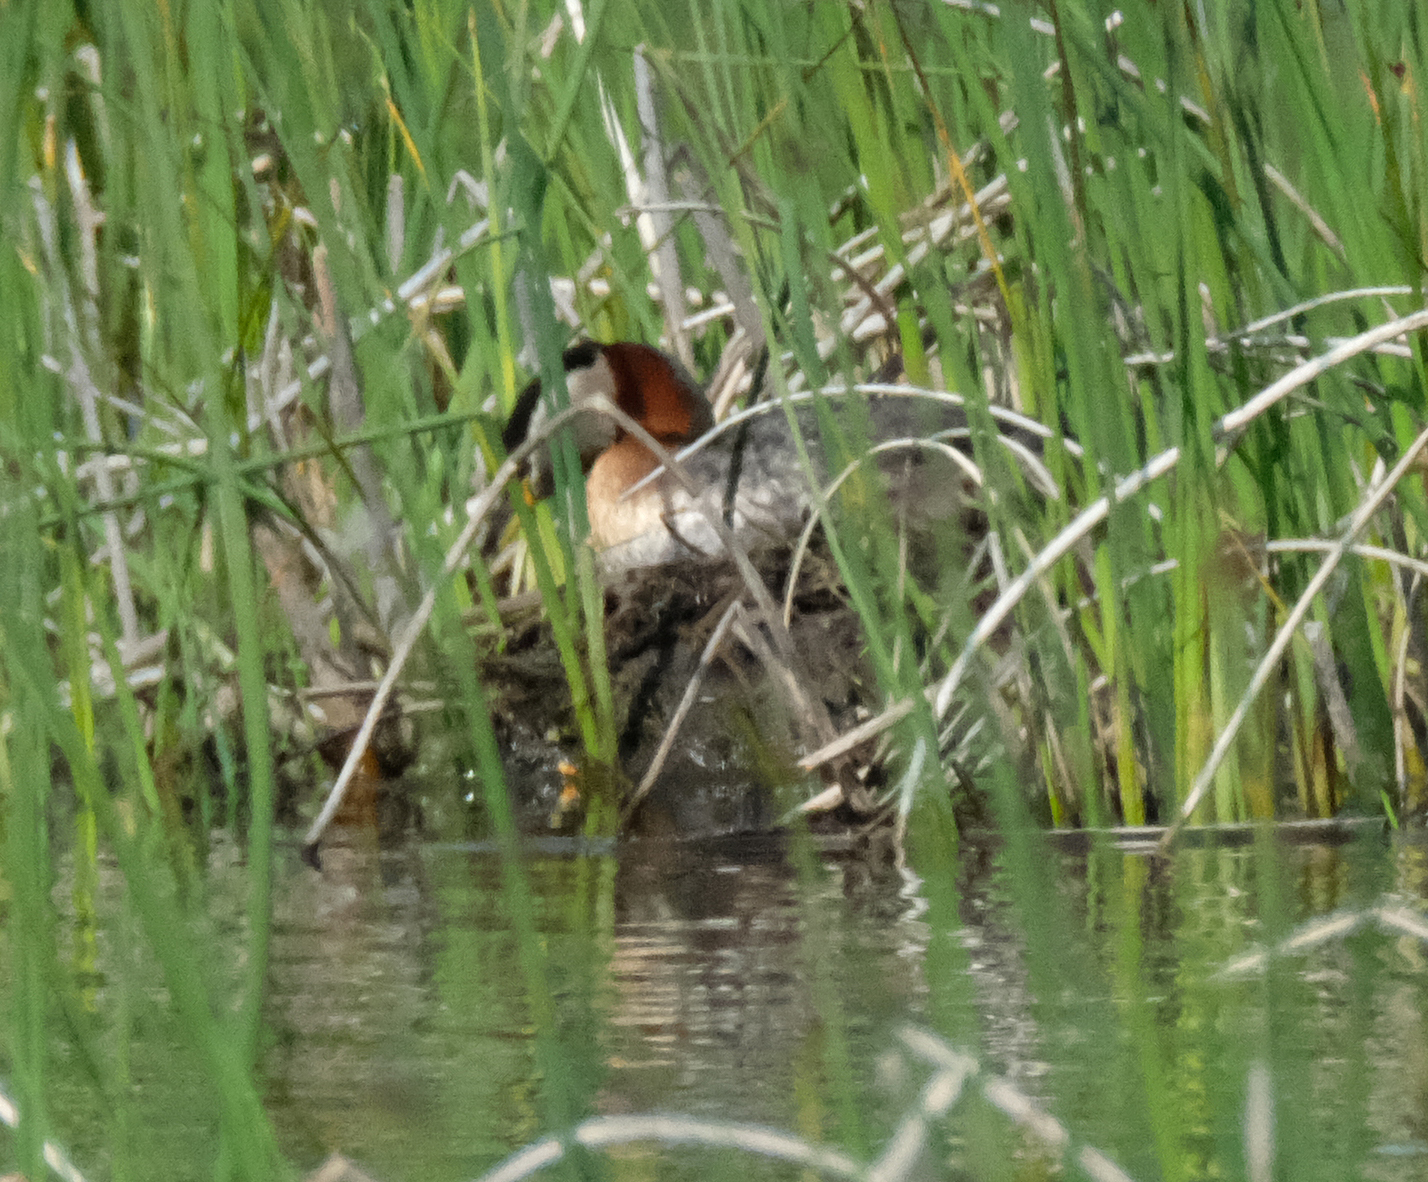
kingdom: Animalia
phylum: Chordata
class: Aves
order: Podicipediformes
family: Podicipedidae
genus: Podiceps
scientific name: Podiceps grisegena
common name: Red-necked grebe
